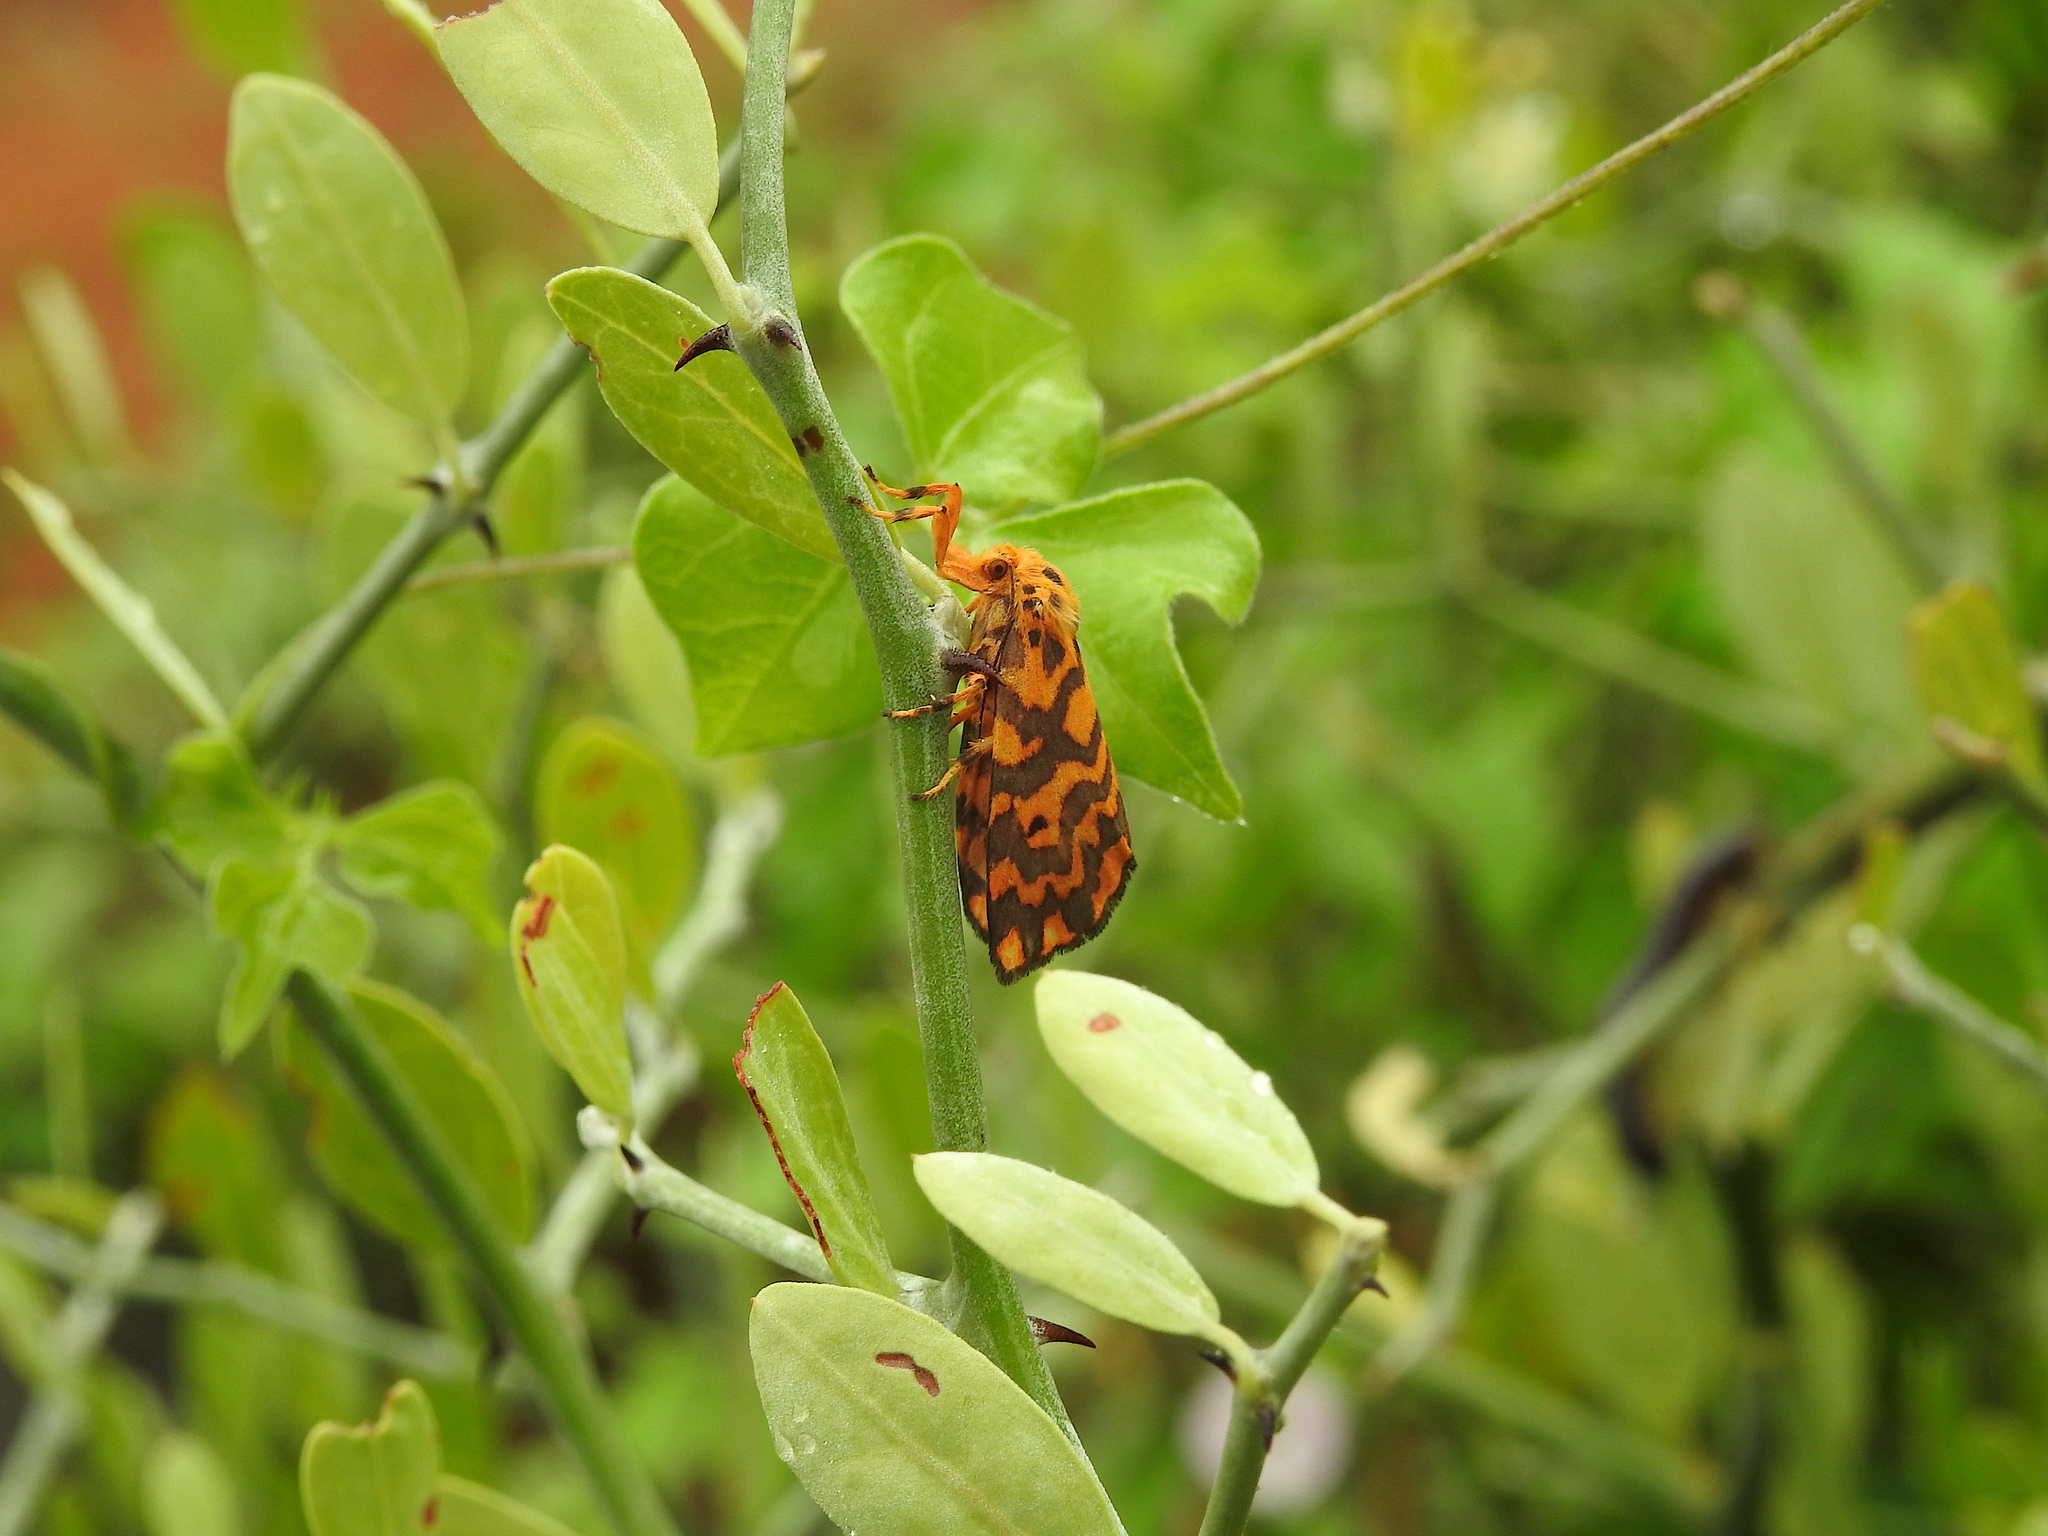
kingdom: Animalia
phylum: Arthropoda
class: Insecta
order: Lepidoptera
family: Erebidae
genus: Nepita
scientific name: Nepita conferta
